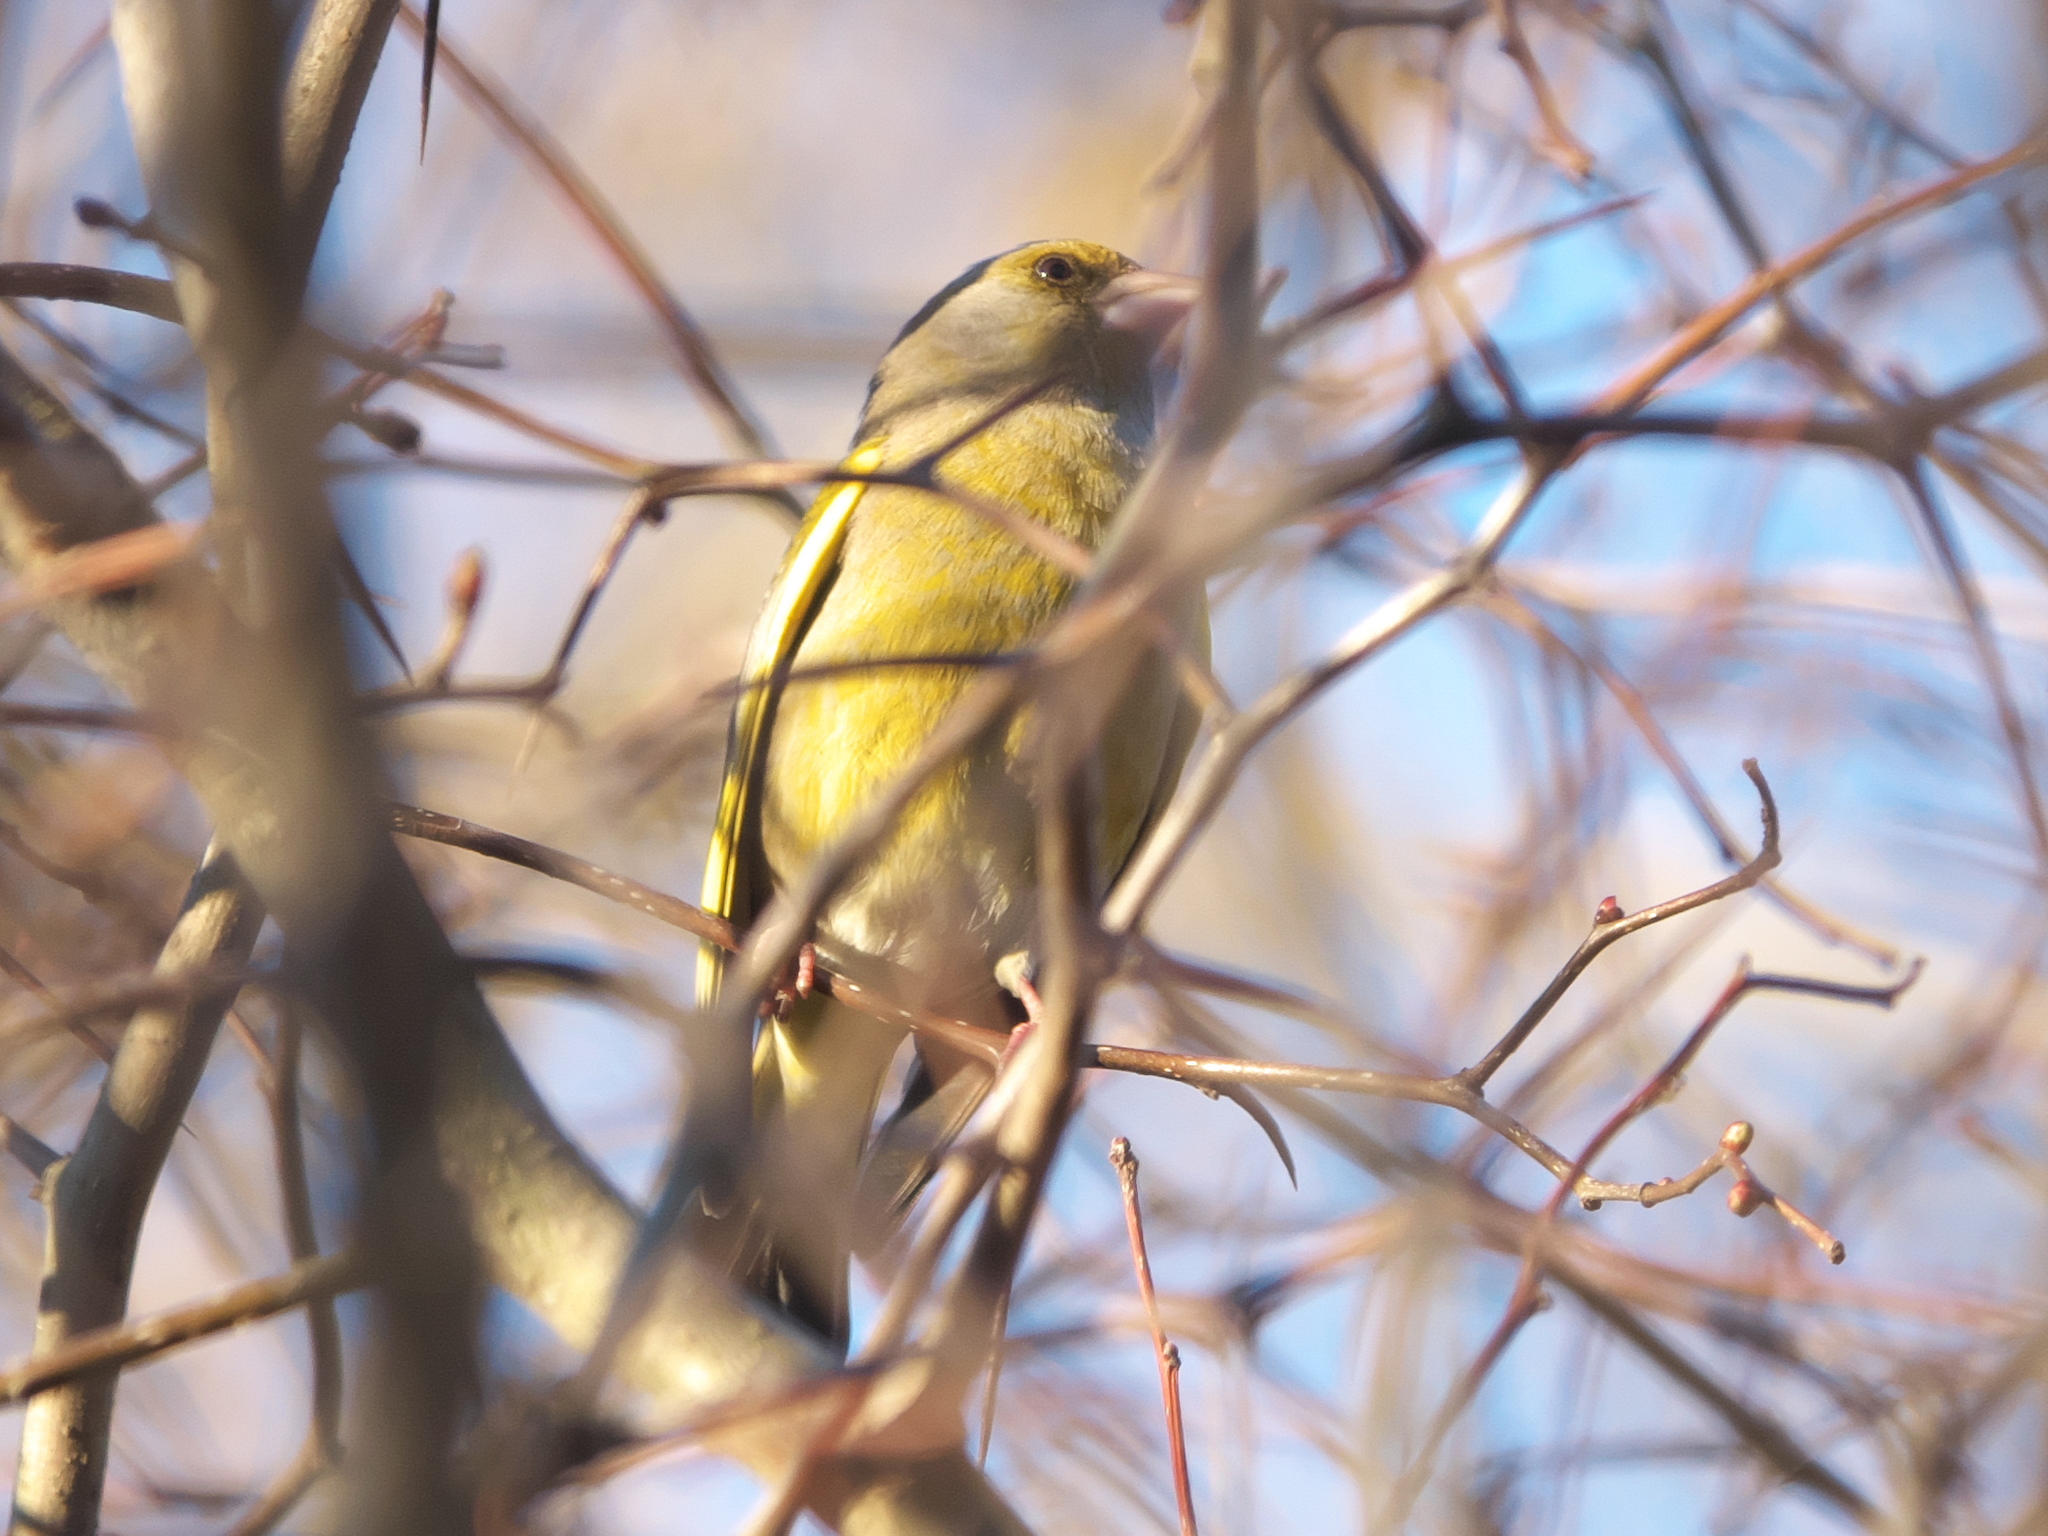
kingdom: Plantae
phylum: Tracheophyta
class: Liliopsida
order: Poales
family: Poaceae
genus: Chloris
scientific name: Chloris chloris
